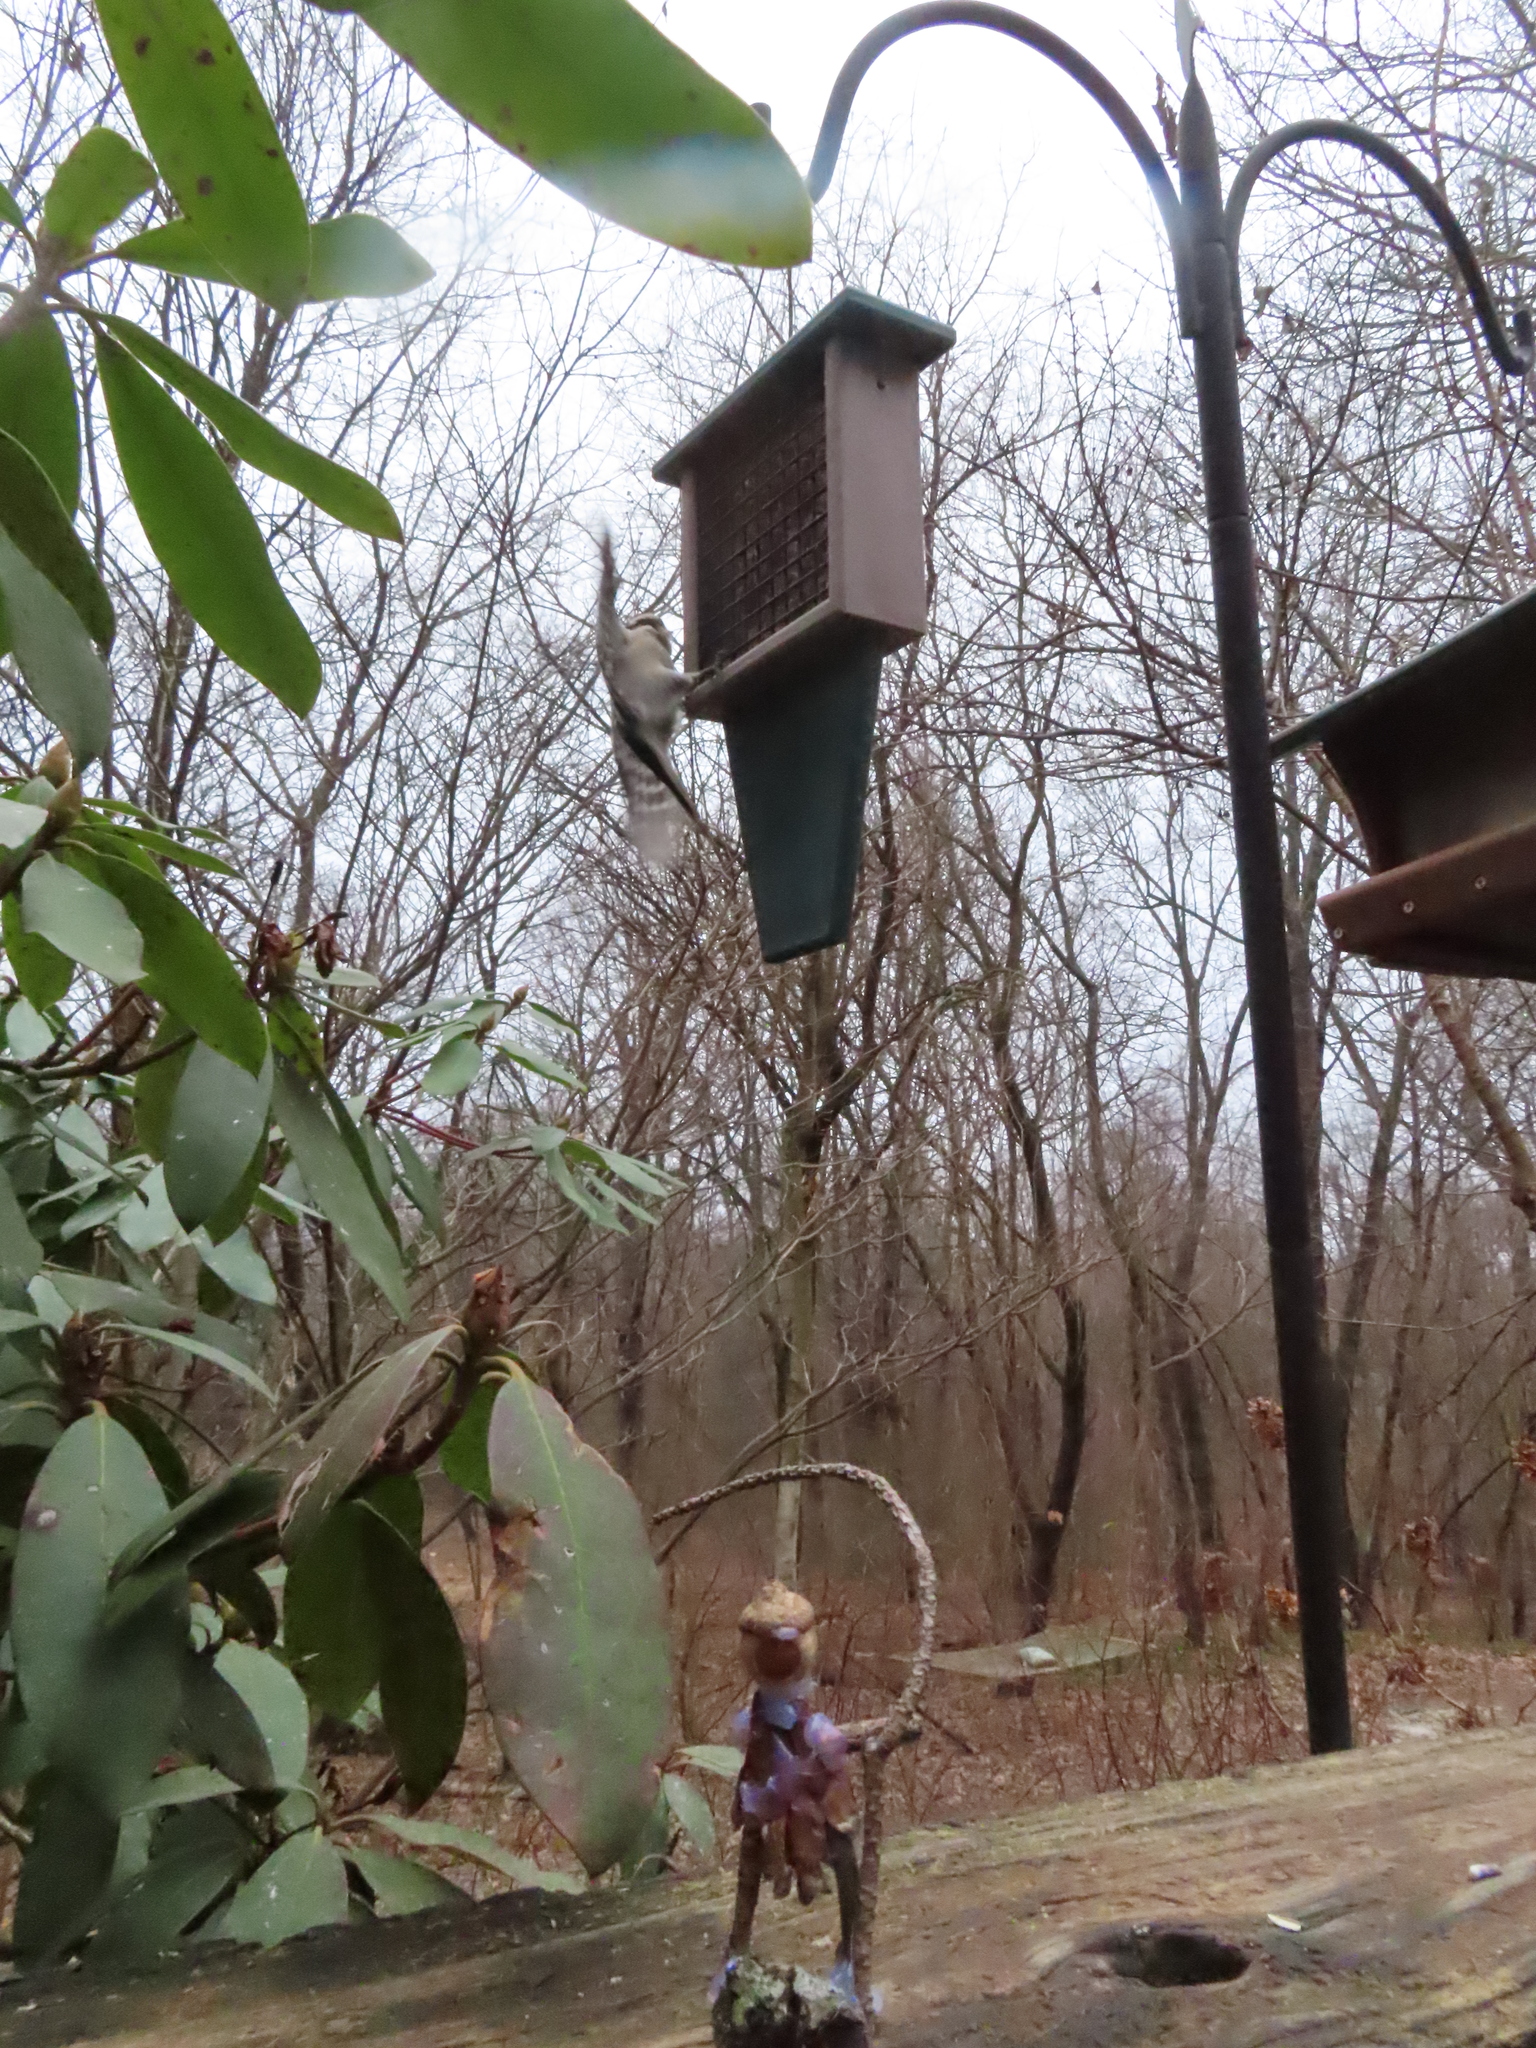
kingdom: Animalia
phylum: Chordata
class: Aves
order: Piciformes
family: Picidae
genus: Dryobates
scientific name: Dryobates pubescens
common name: Downy woodpecker
